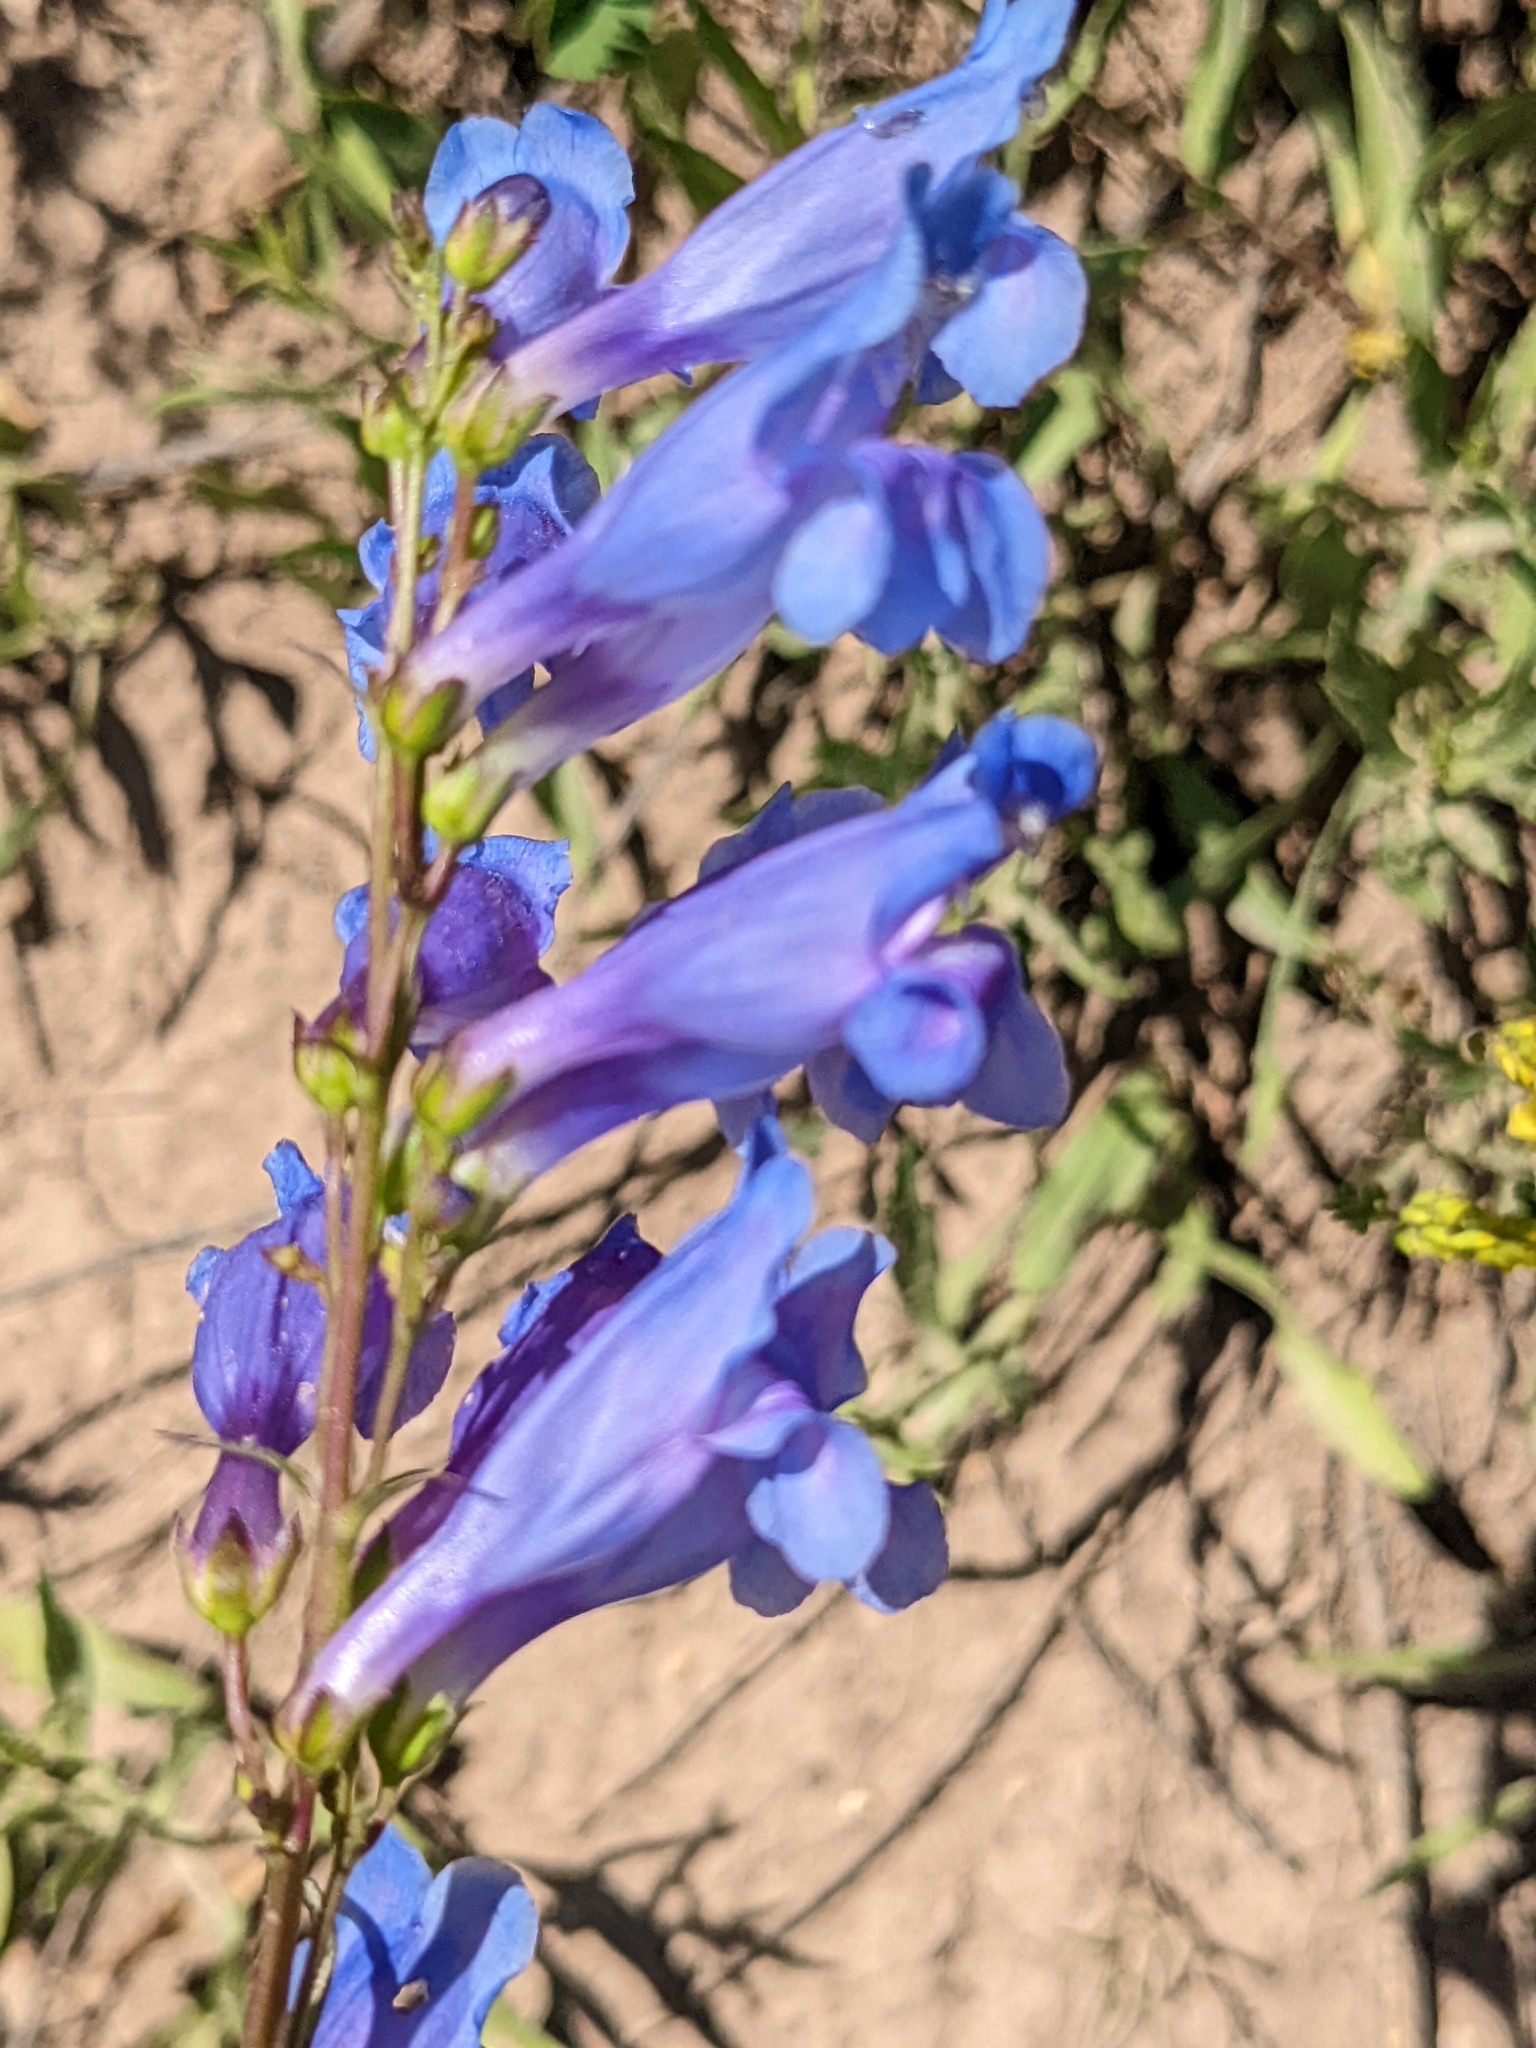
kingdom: Plantae
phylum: Tracheophyta
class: Magnoliopsida
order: Lamiales
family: Plantaginaceae
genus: Penstemon
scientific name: Penstemon strictus
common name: Rocky mountain penstemon
